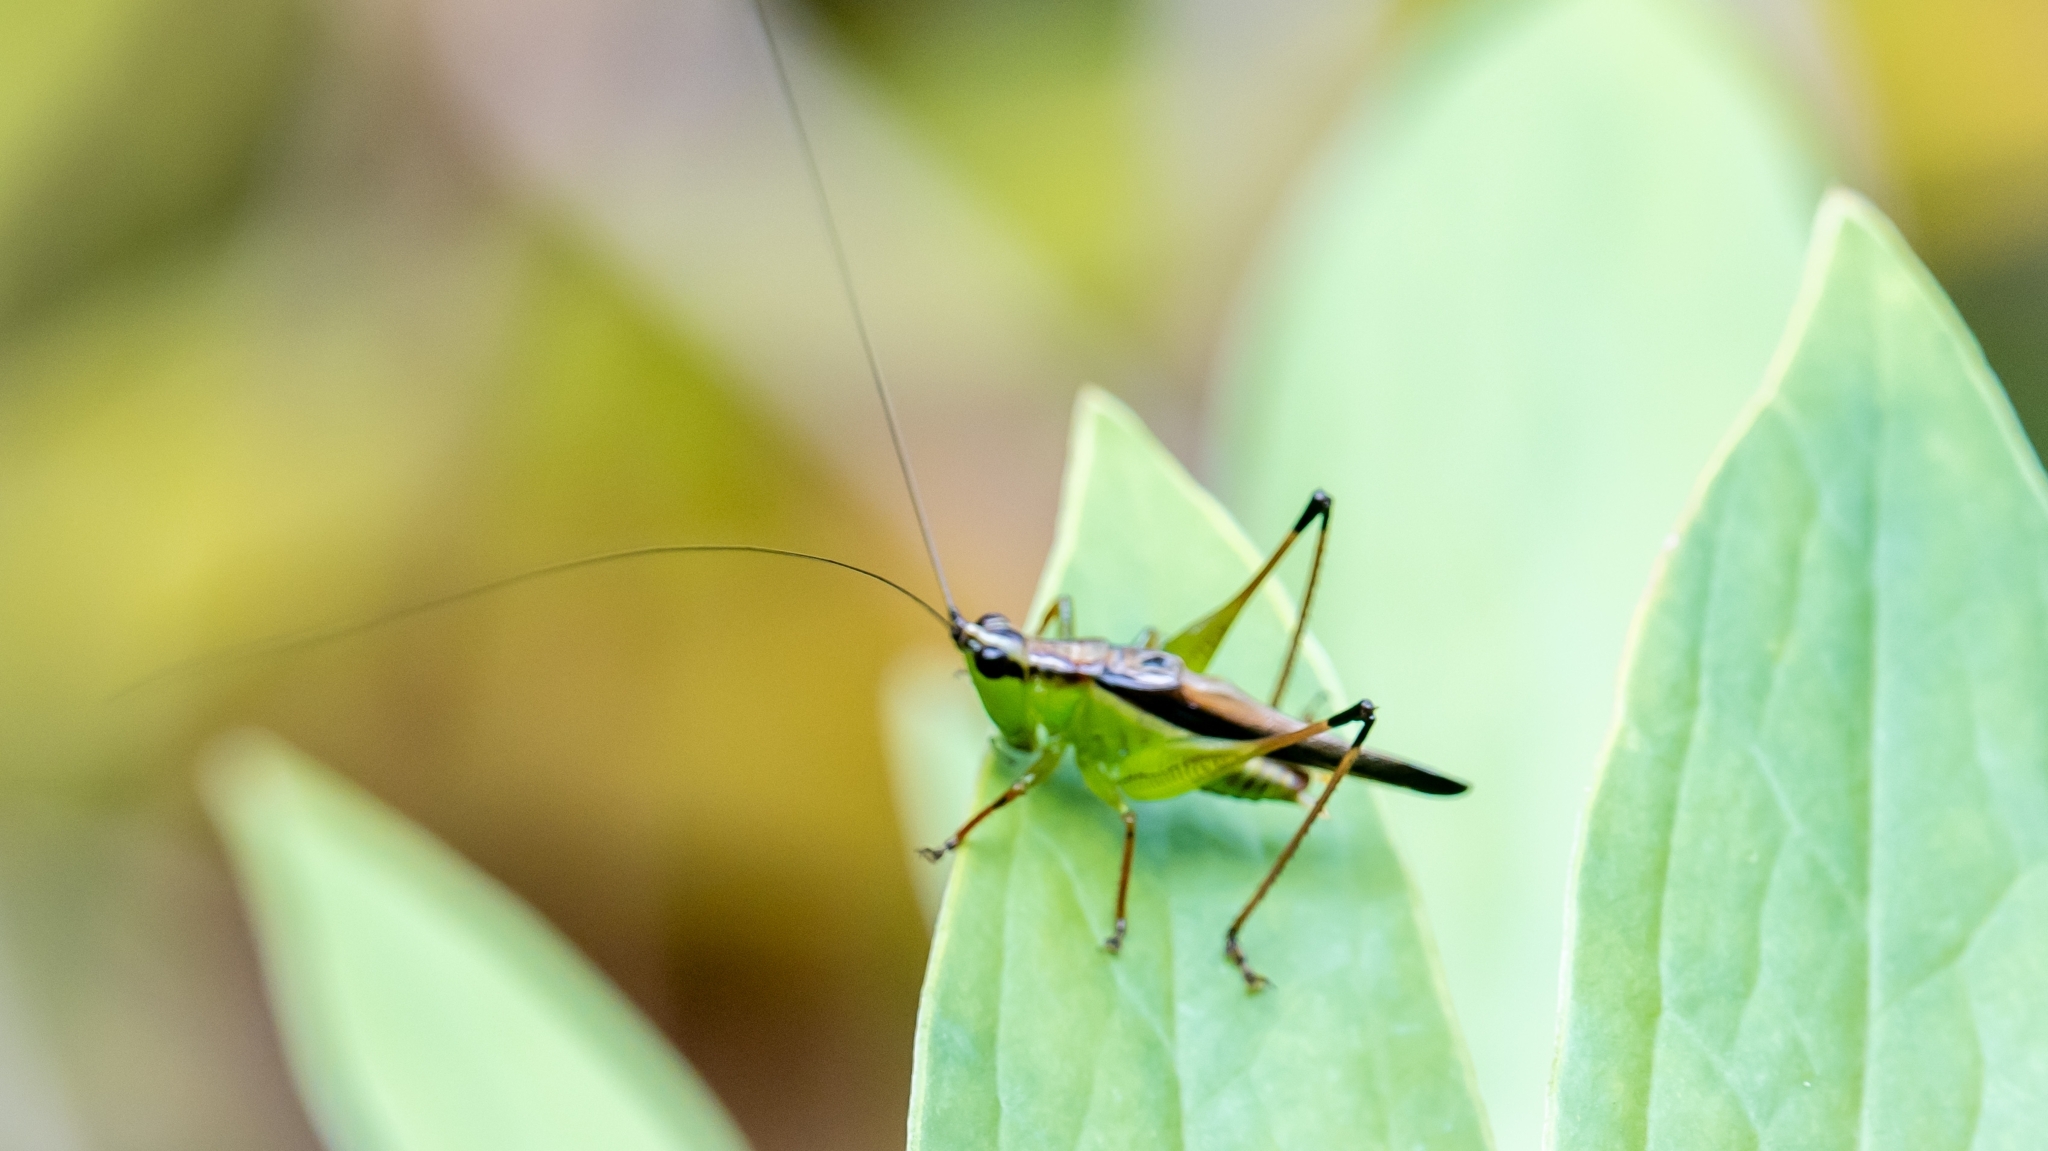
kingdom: Animalia
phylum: Arthropoda
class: Insecta
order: Orthoptera
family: Tettigoniidae
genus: Conocephalus
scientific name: Conocephalus melaenus
